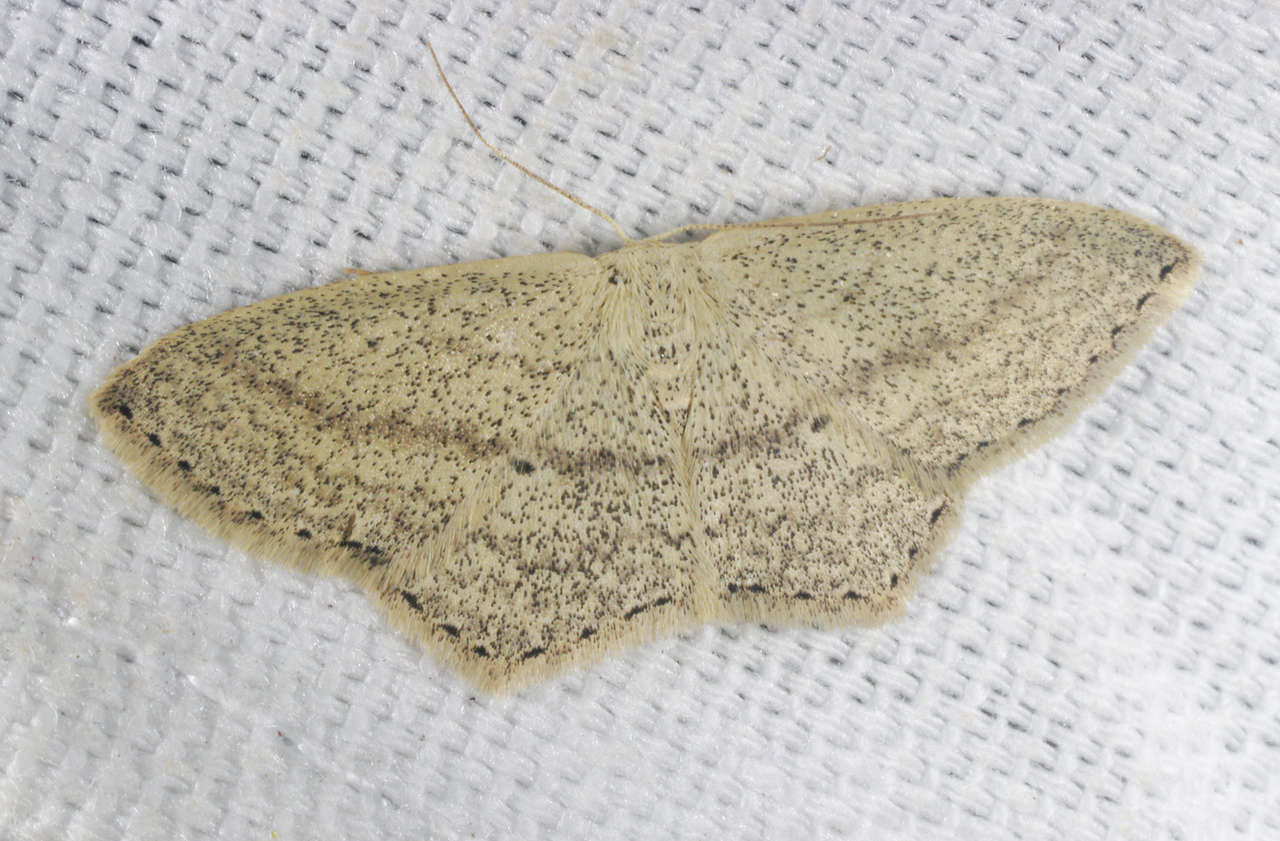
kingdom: Animalia
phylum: Arthropoda
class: Insecta
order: Lepidoptera
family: Geometridae
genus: Scopula
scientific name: Scopula perlata
